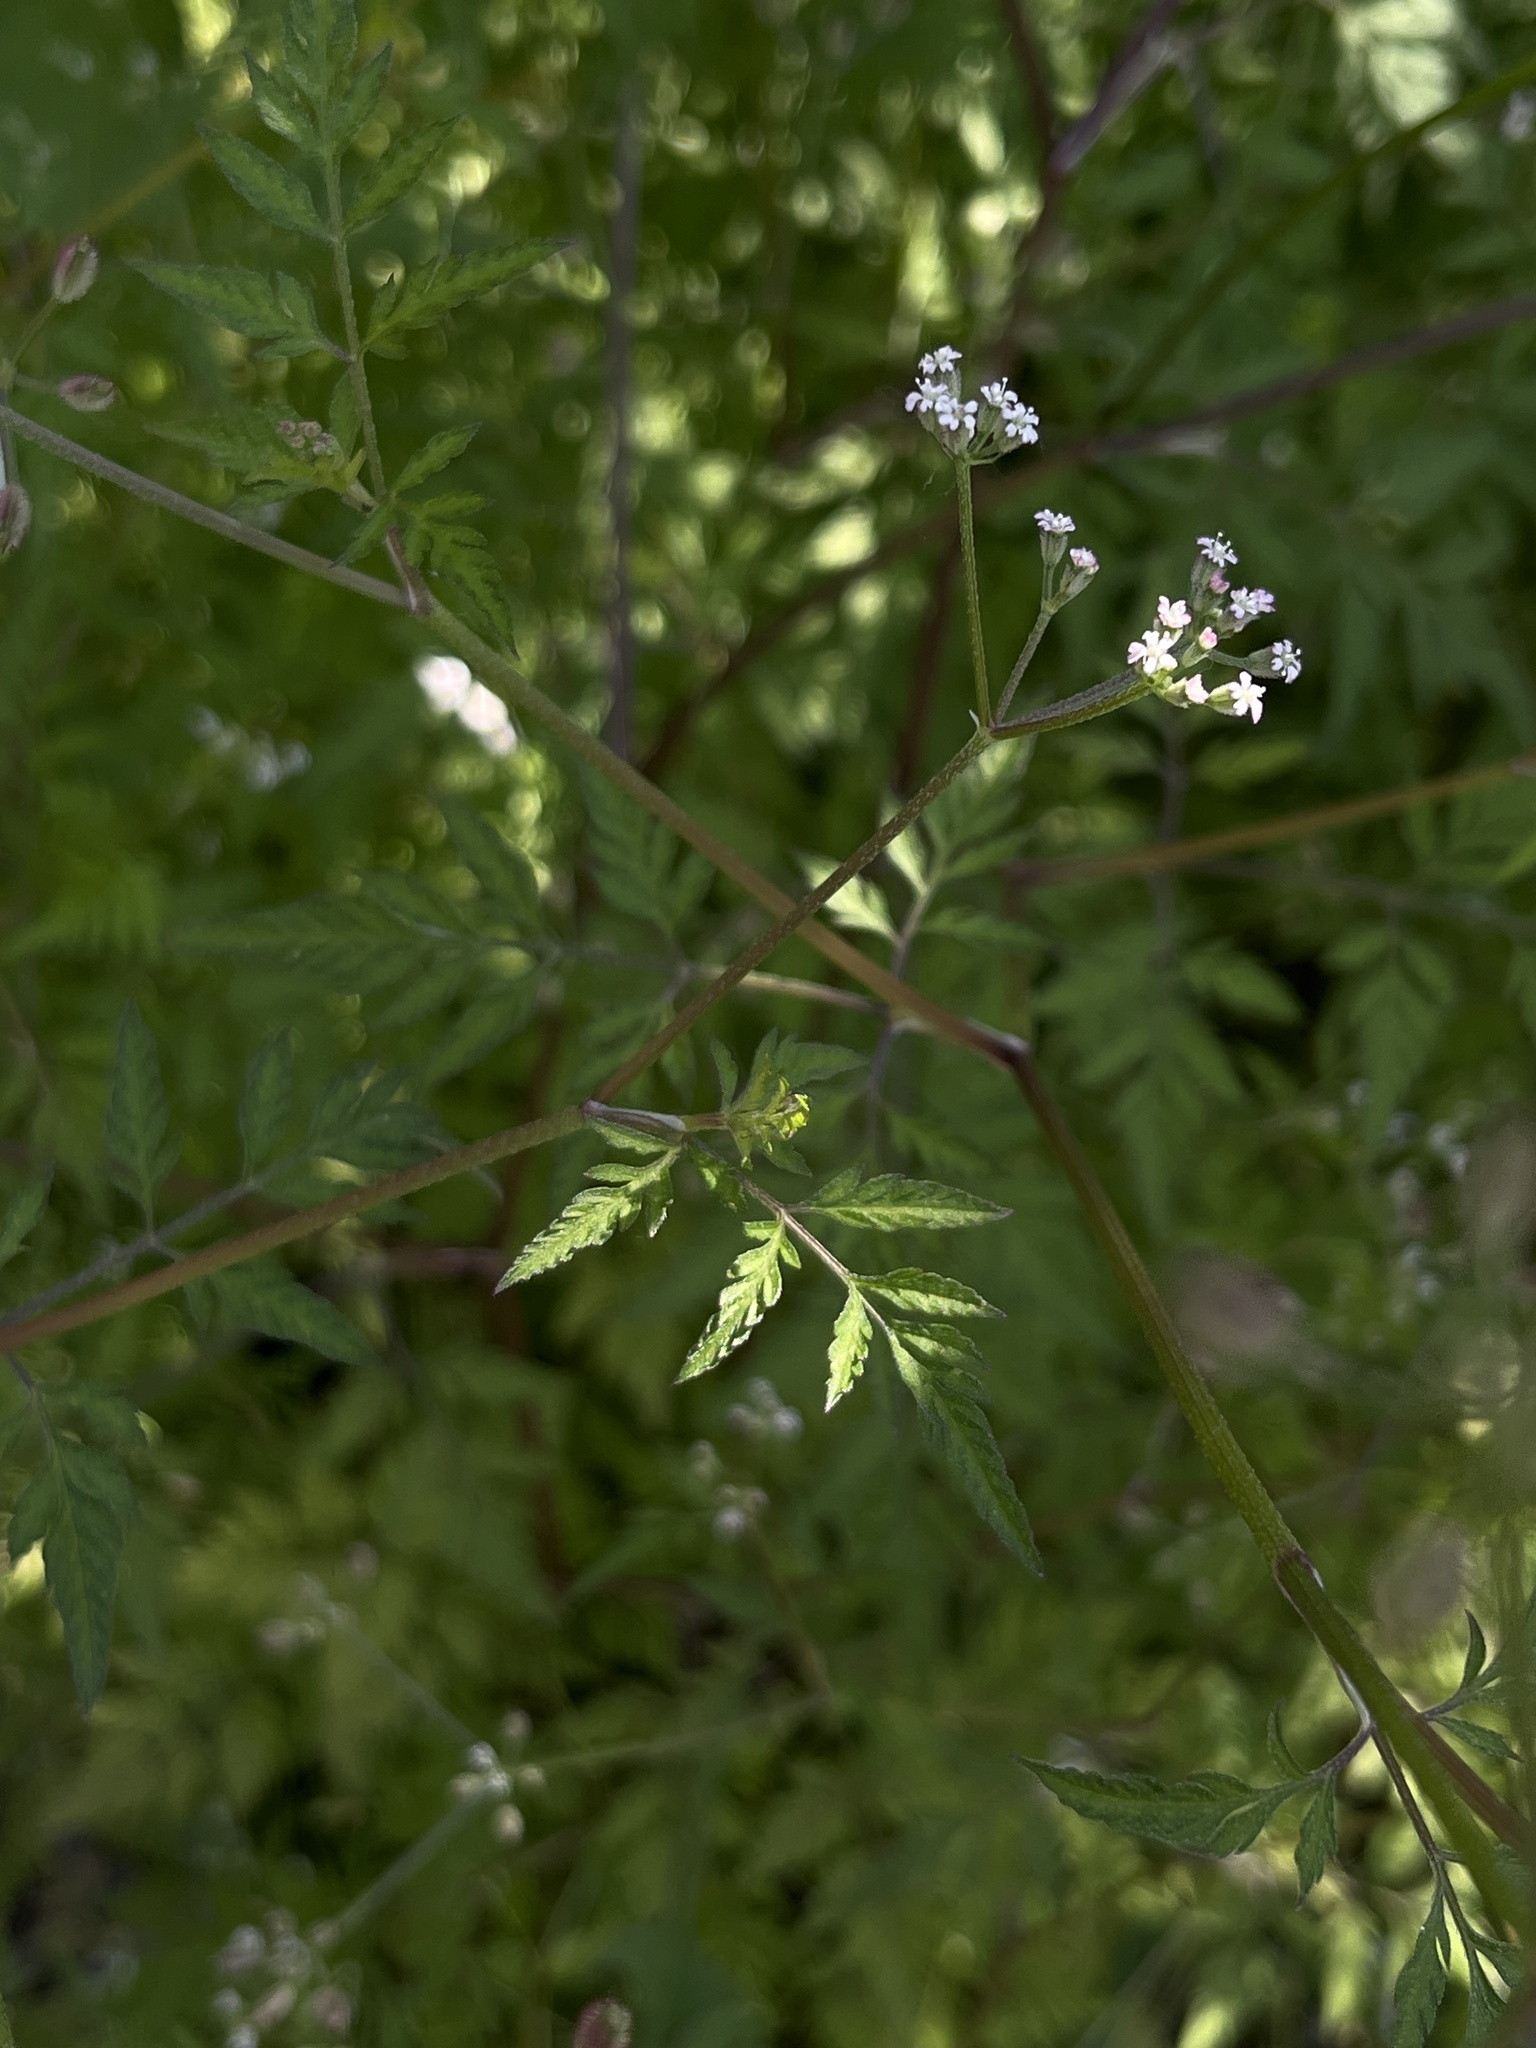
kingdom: Plantae
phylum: Tracheophyta
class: Magnoliopsida
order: Apiales
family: Apiaceae
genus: Torilis
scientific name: Torilis scabra
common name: Rough hedgeparsley
